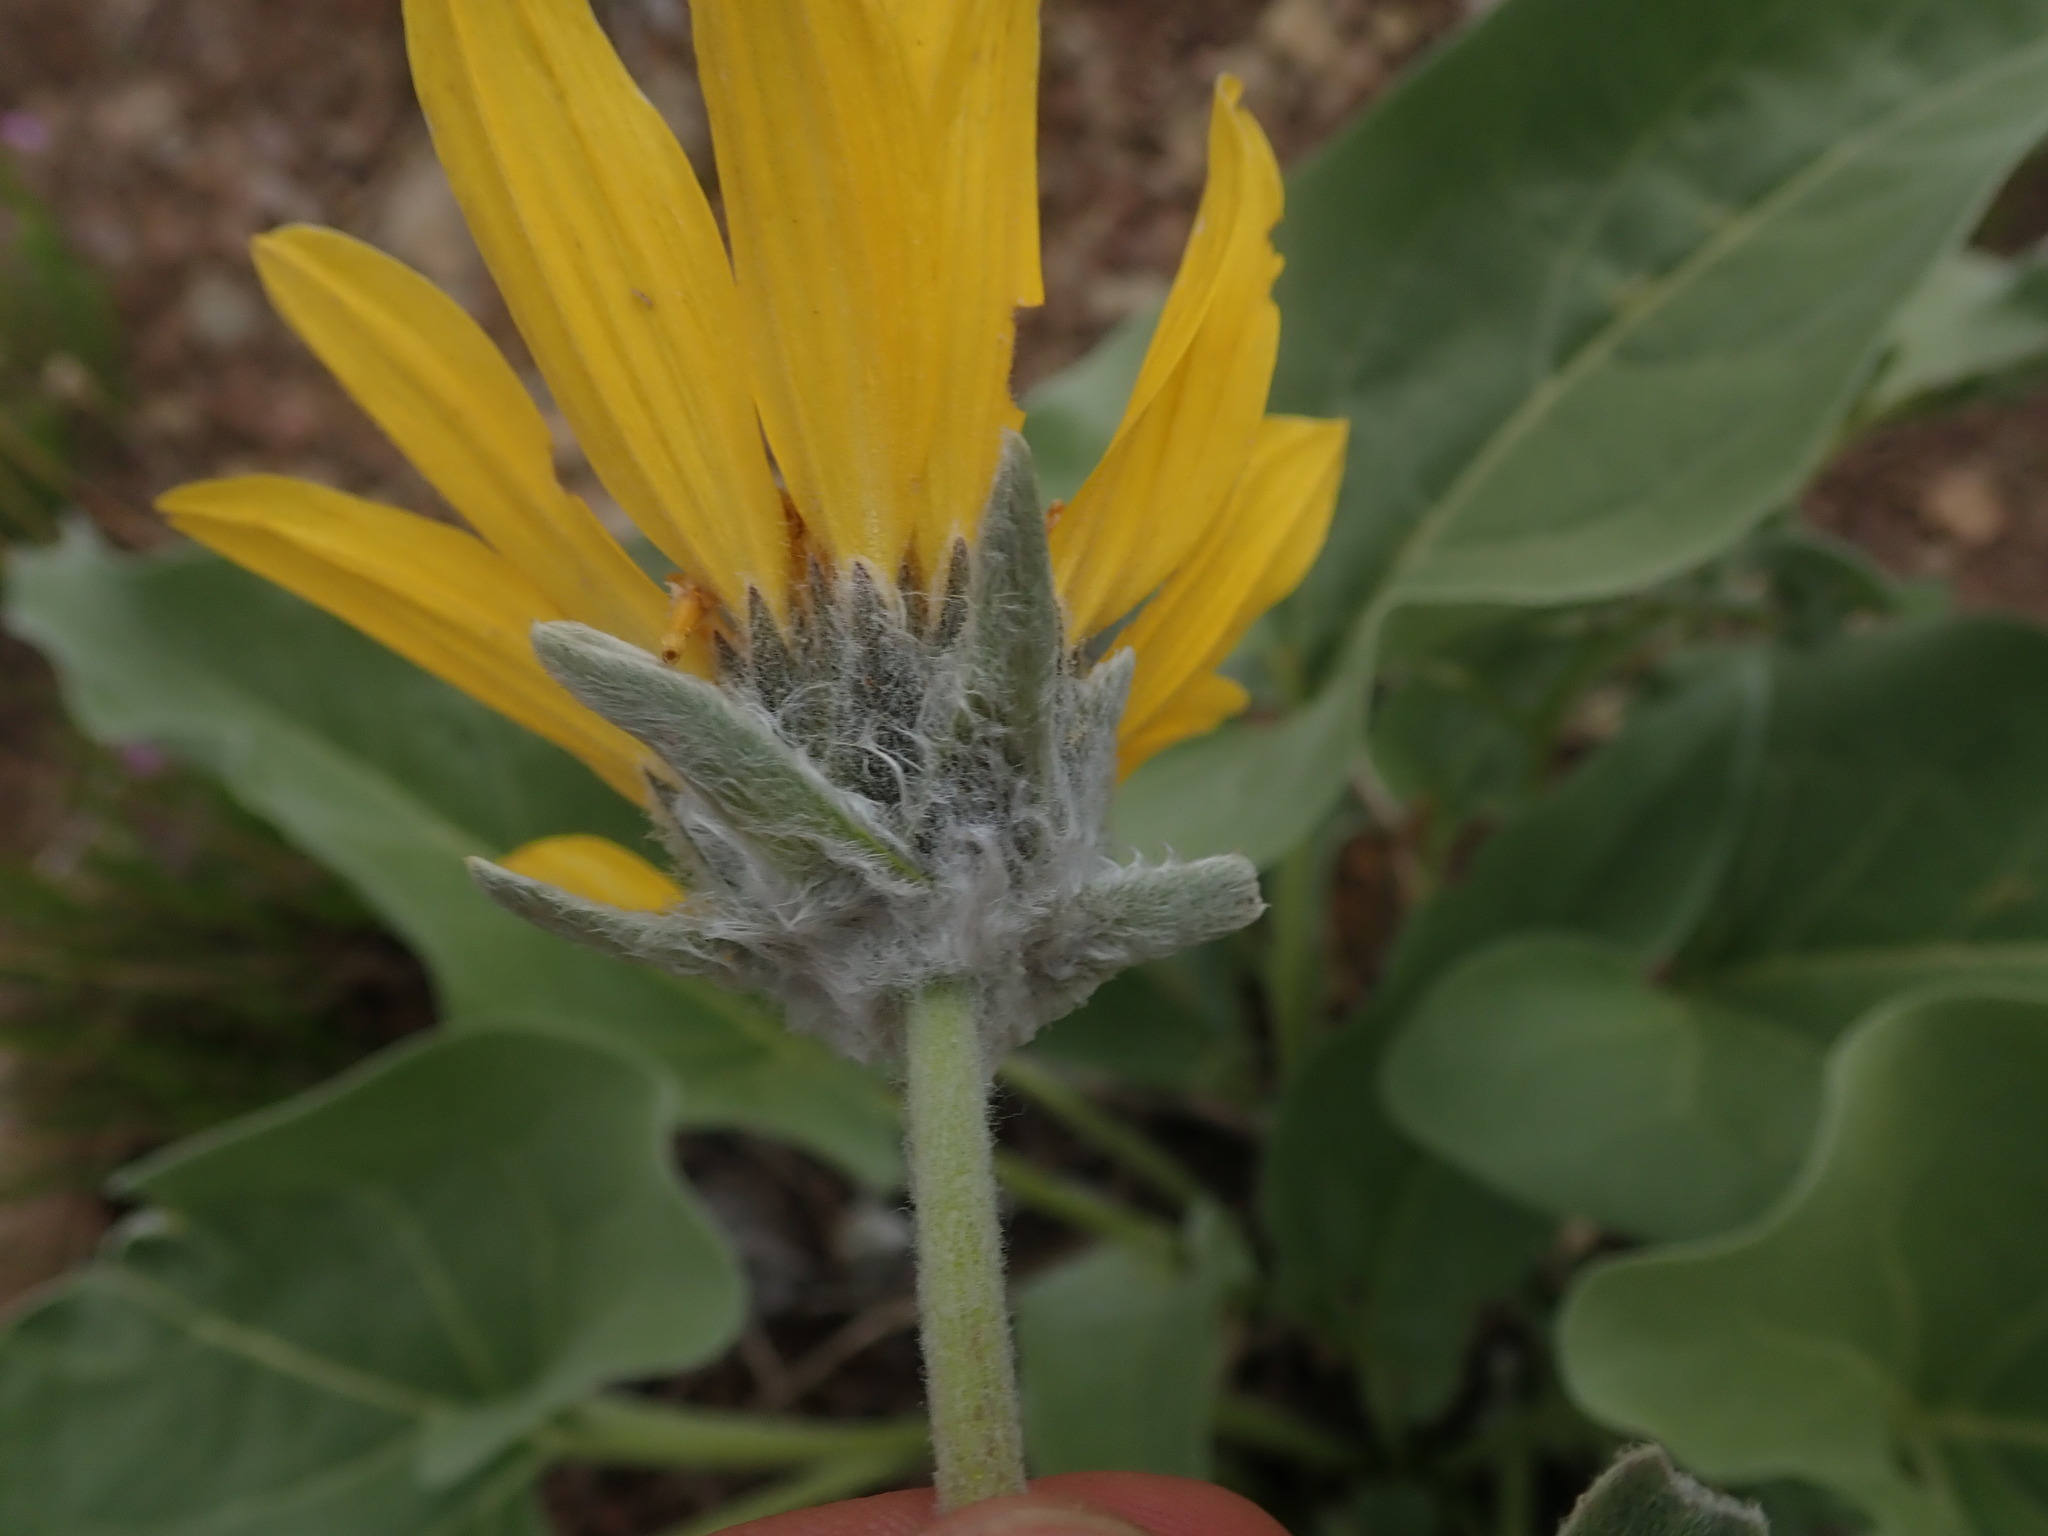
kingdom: Plantae
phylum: Tracheophyta
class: Magnoliopsida
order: Asterales
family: Asteraceae
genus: Wyethia
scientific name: Wyethia sagittata
